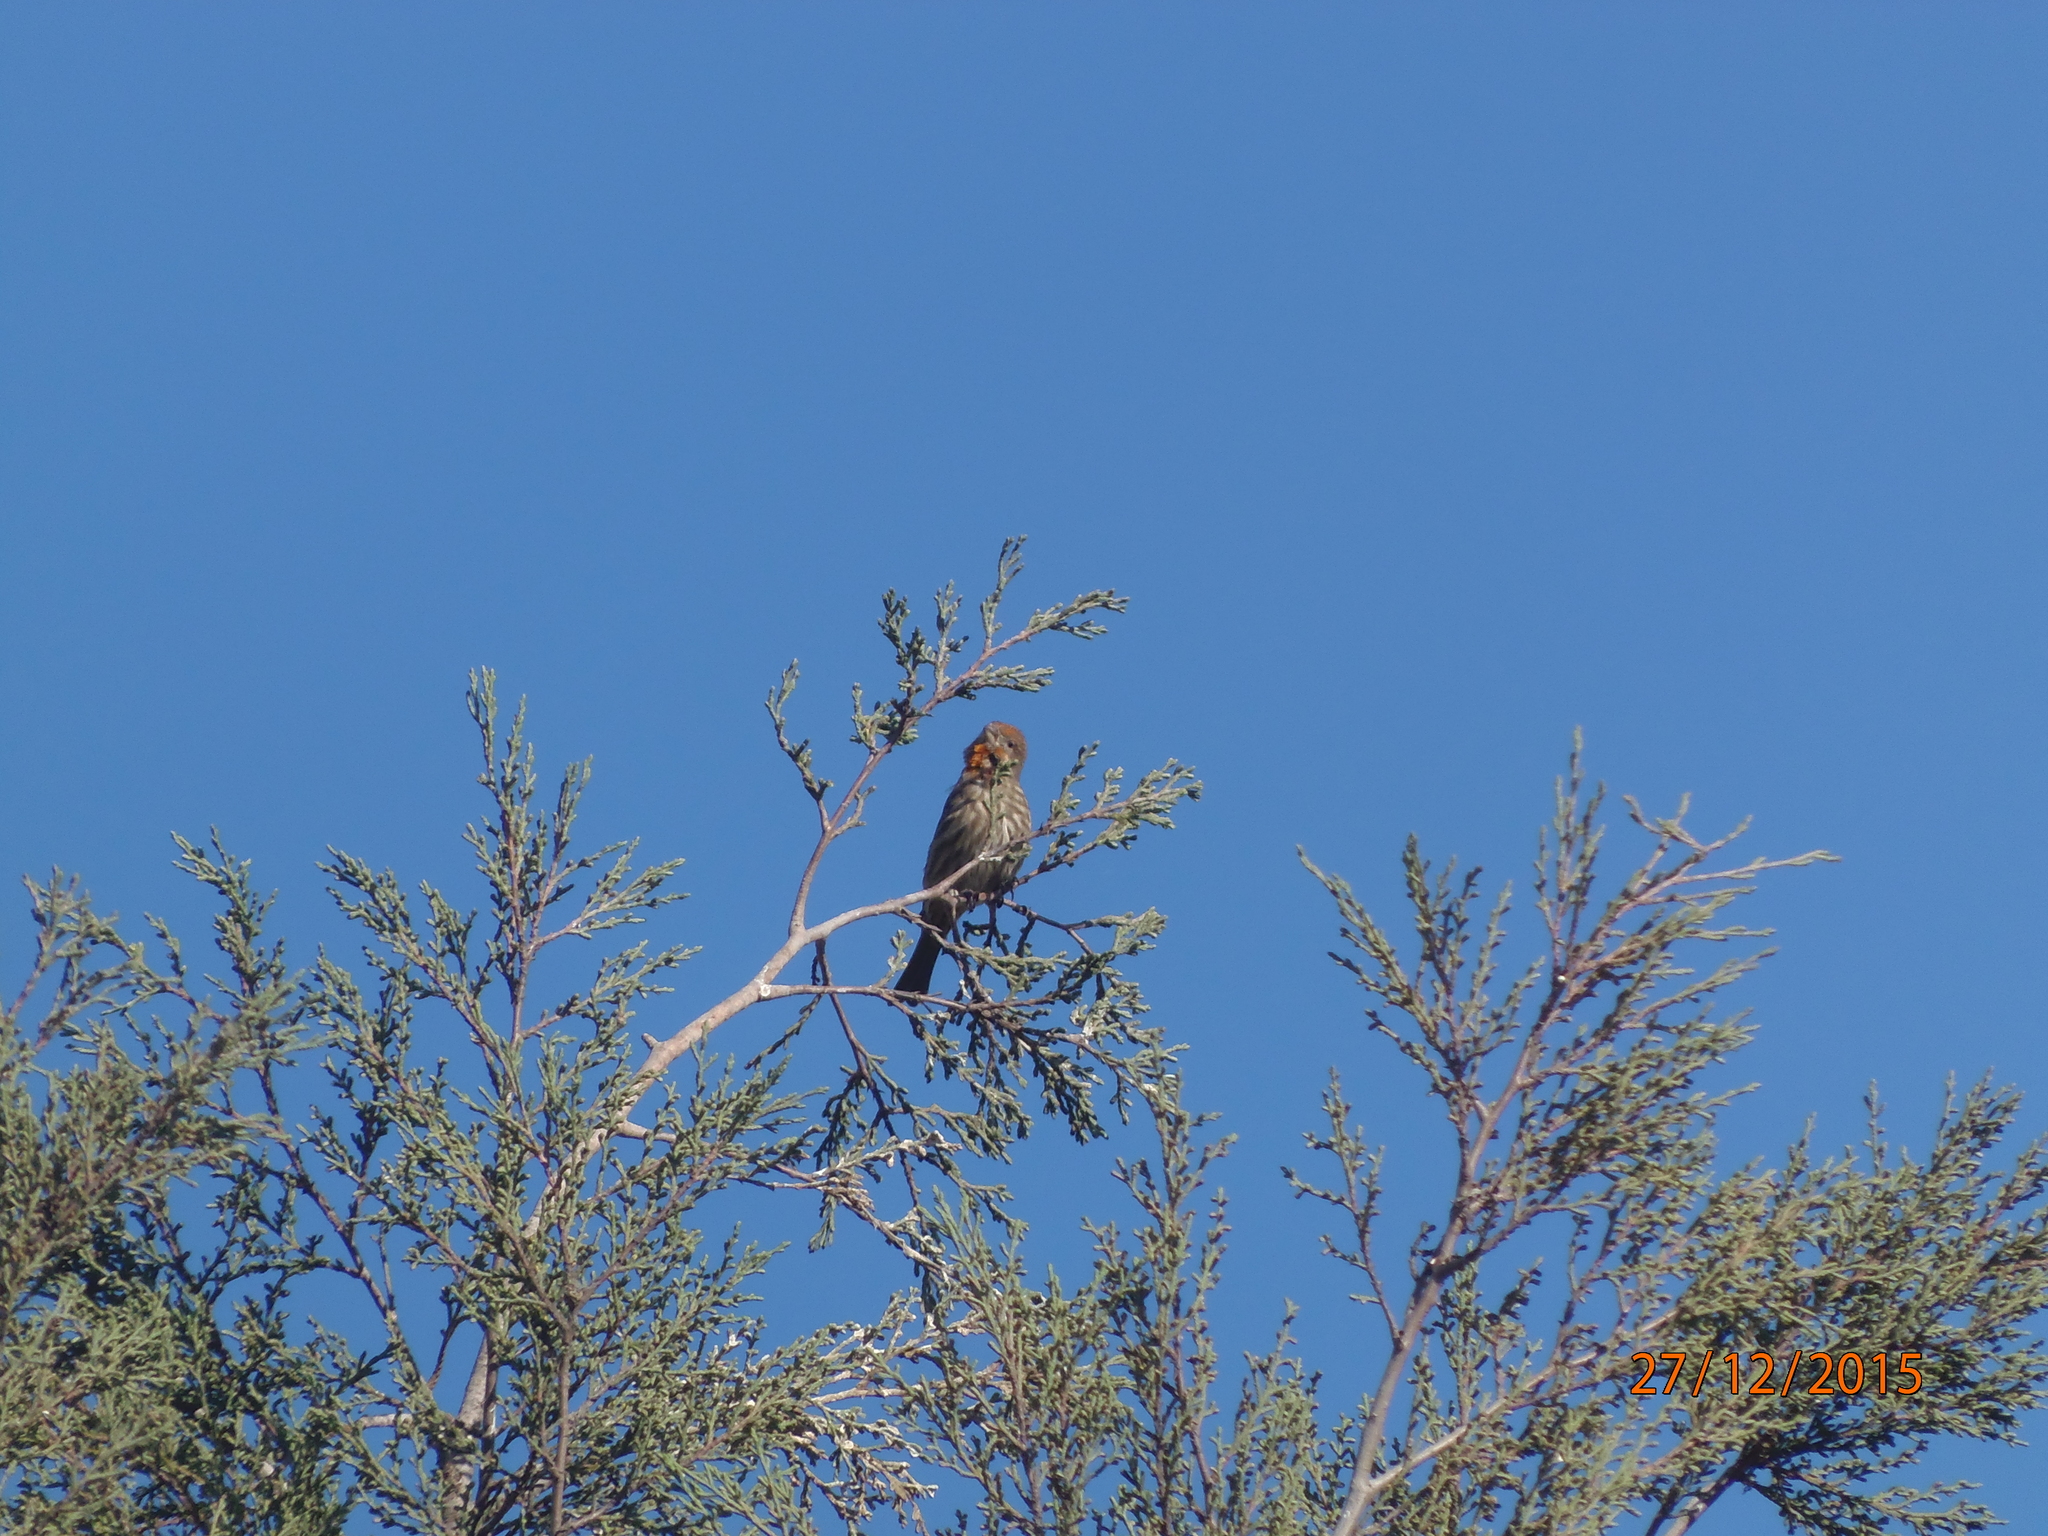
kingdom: Animalia
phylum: Chordata
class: Aves
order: Passeriformes
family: Fringillidae
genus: Haemorhous
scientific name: Haemorhous mexicanus
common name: House finch
